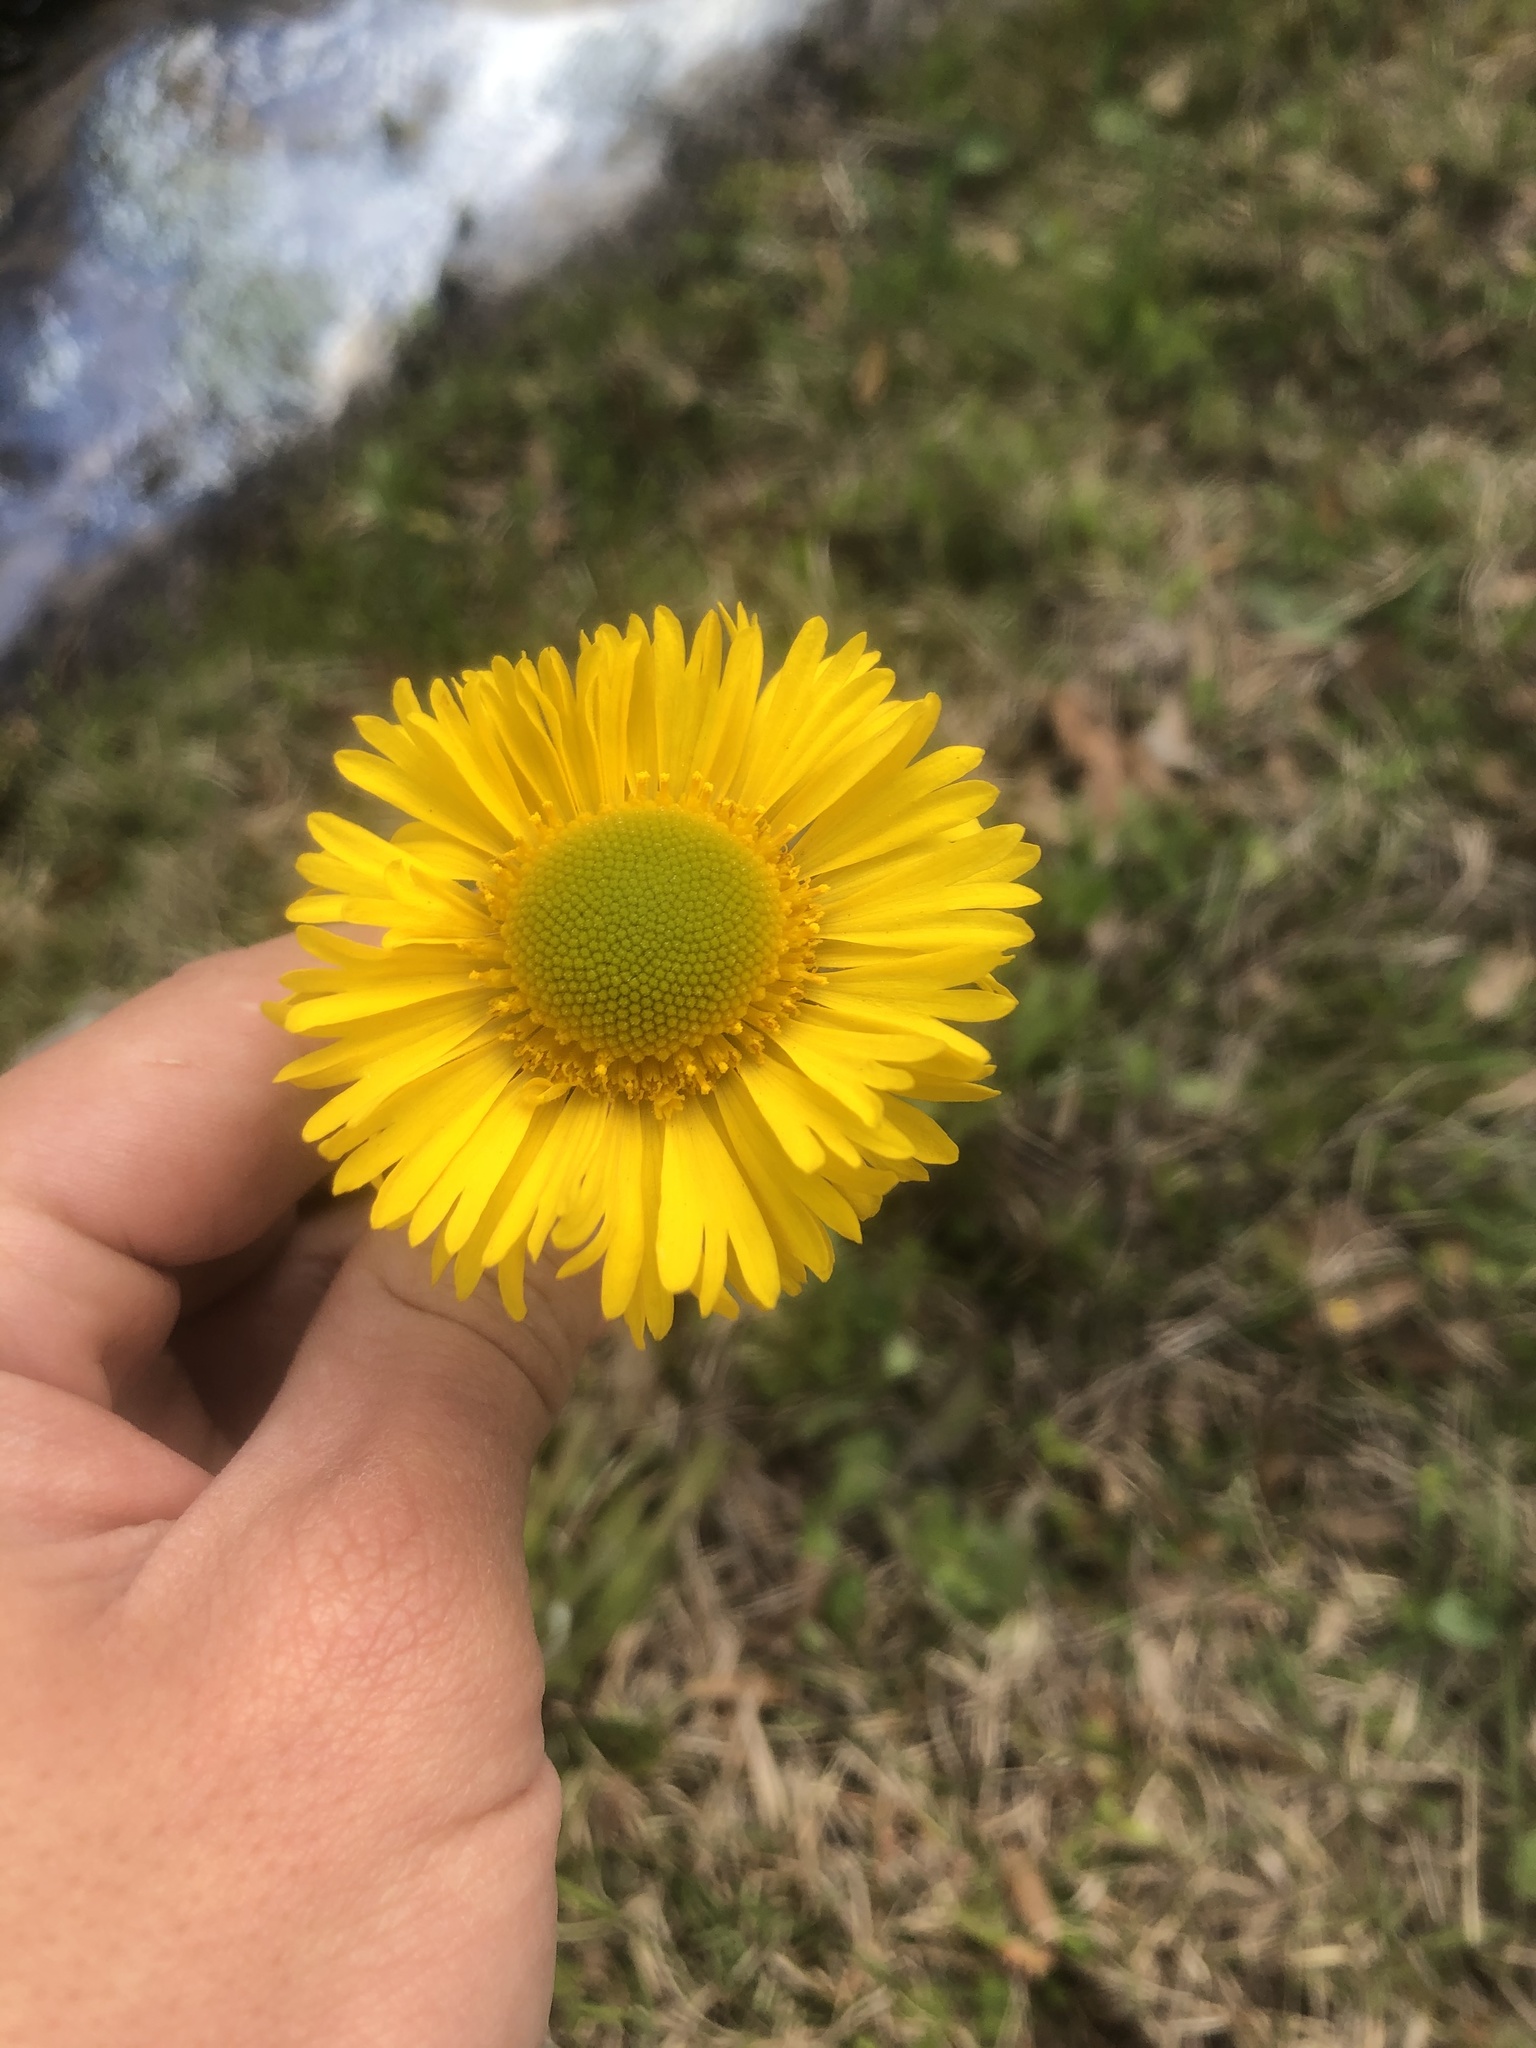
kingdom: Plantae
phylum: Tracheophyta
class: Magnoliopsida
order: Asterales
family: Asteraceae
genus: Helenium
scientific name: Helenium pinnatifidum
